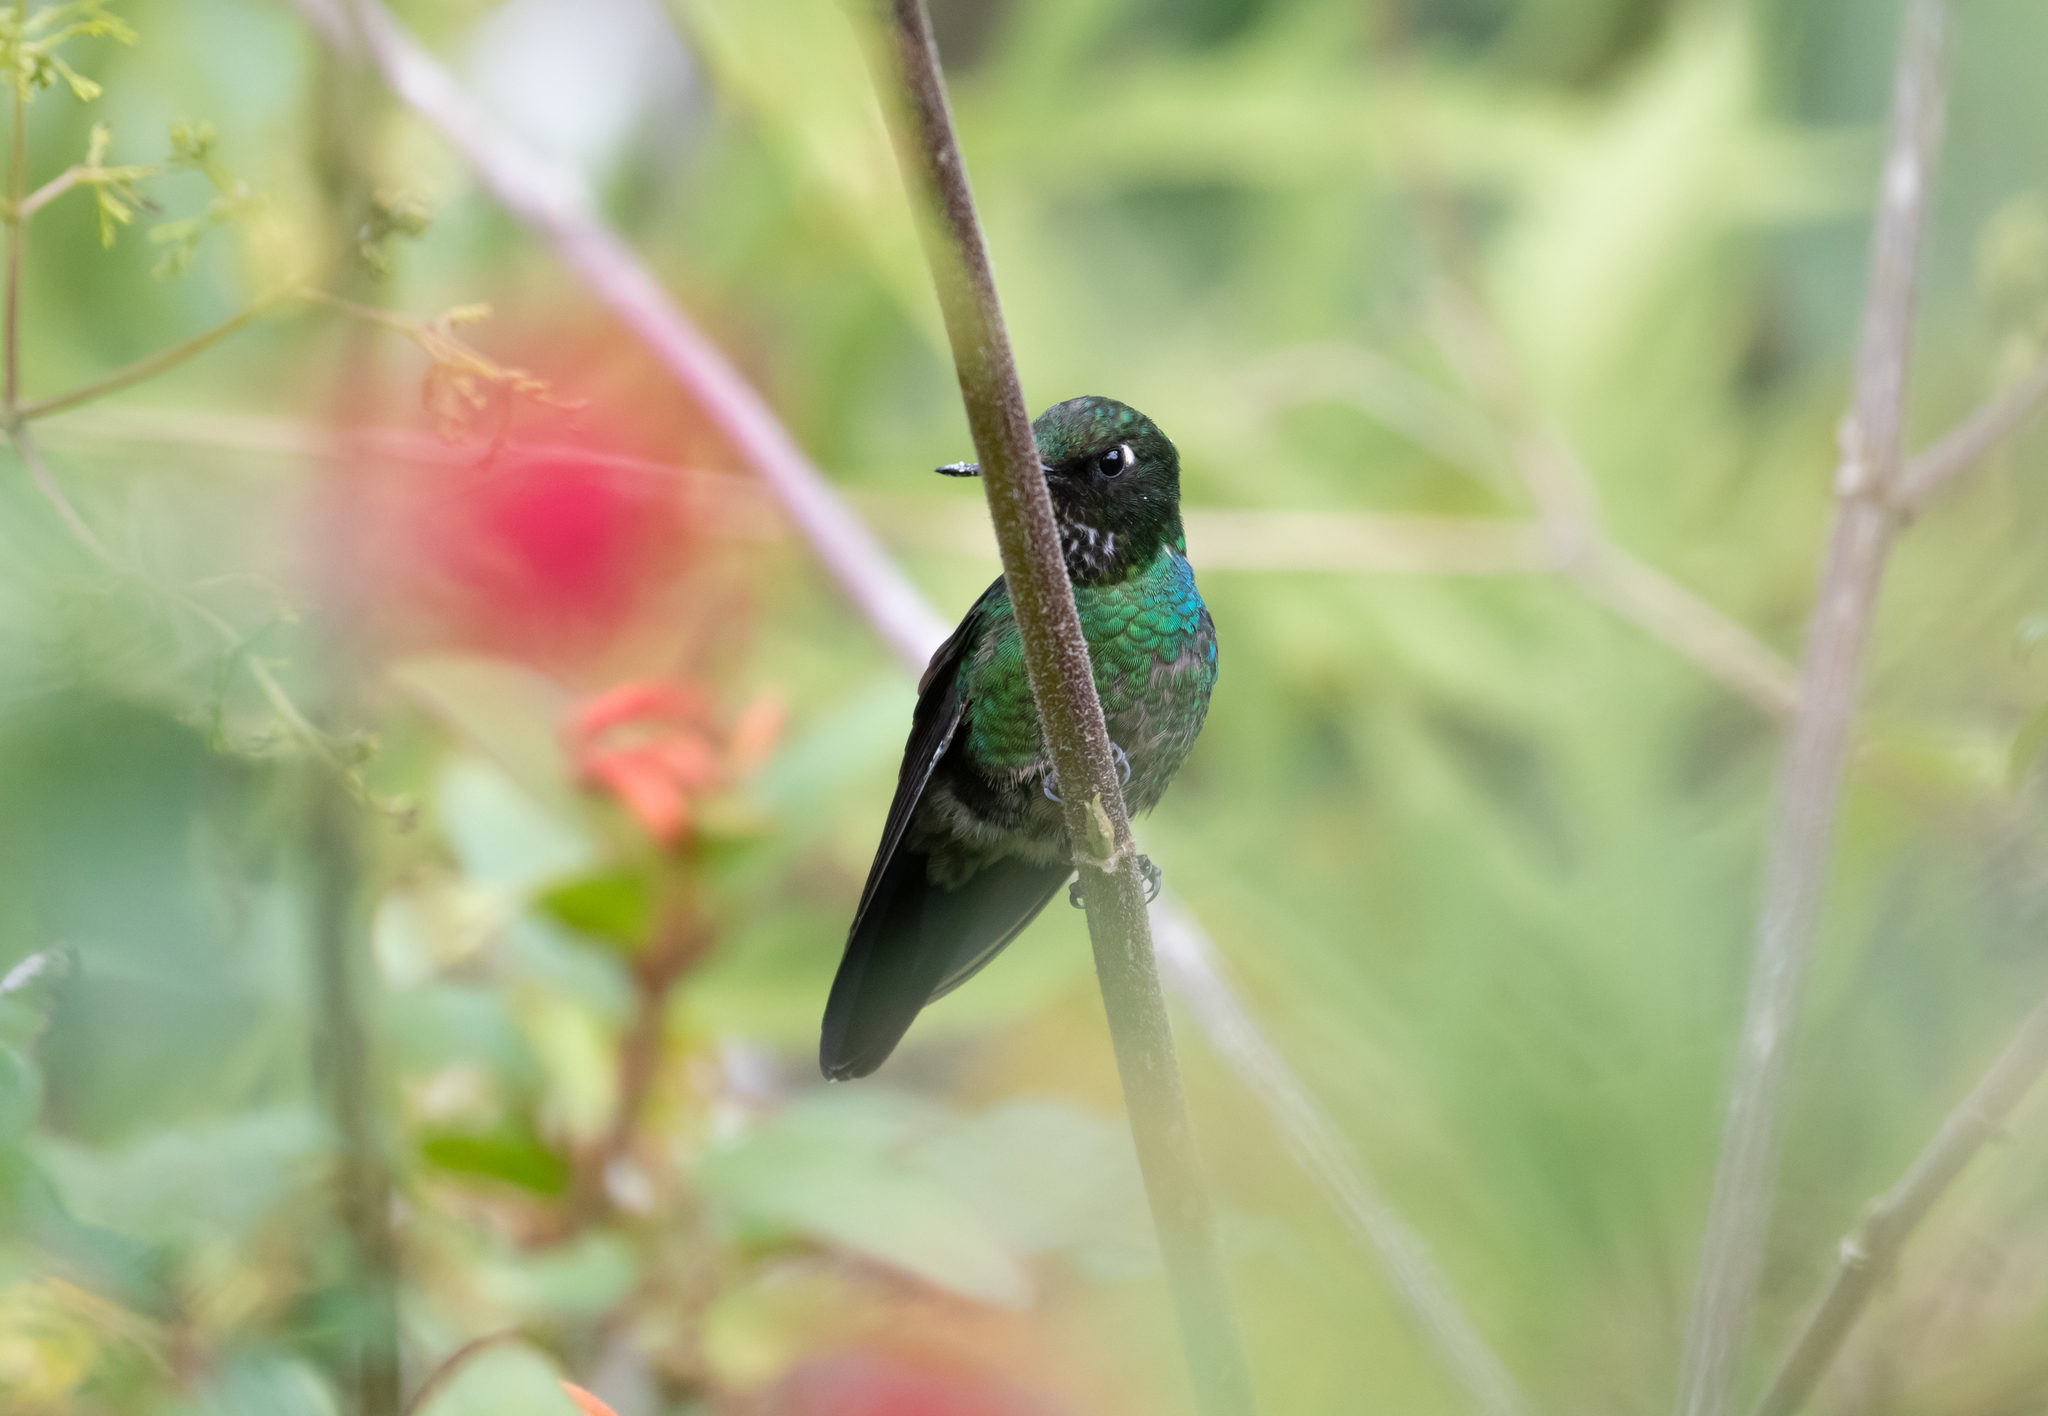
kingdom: Animalia
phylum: Chordata
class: Aves
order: Apodiformes
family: Trochilidae
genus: Heliangelus
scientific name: Heliangelus exortis
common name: Tourmaline sunangel
